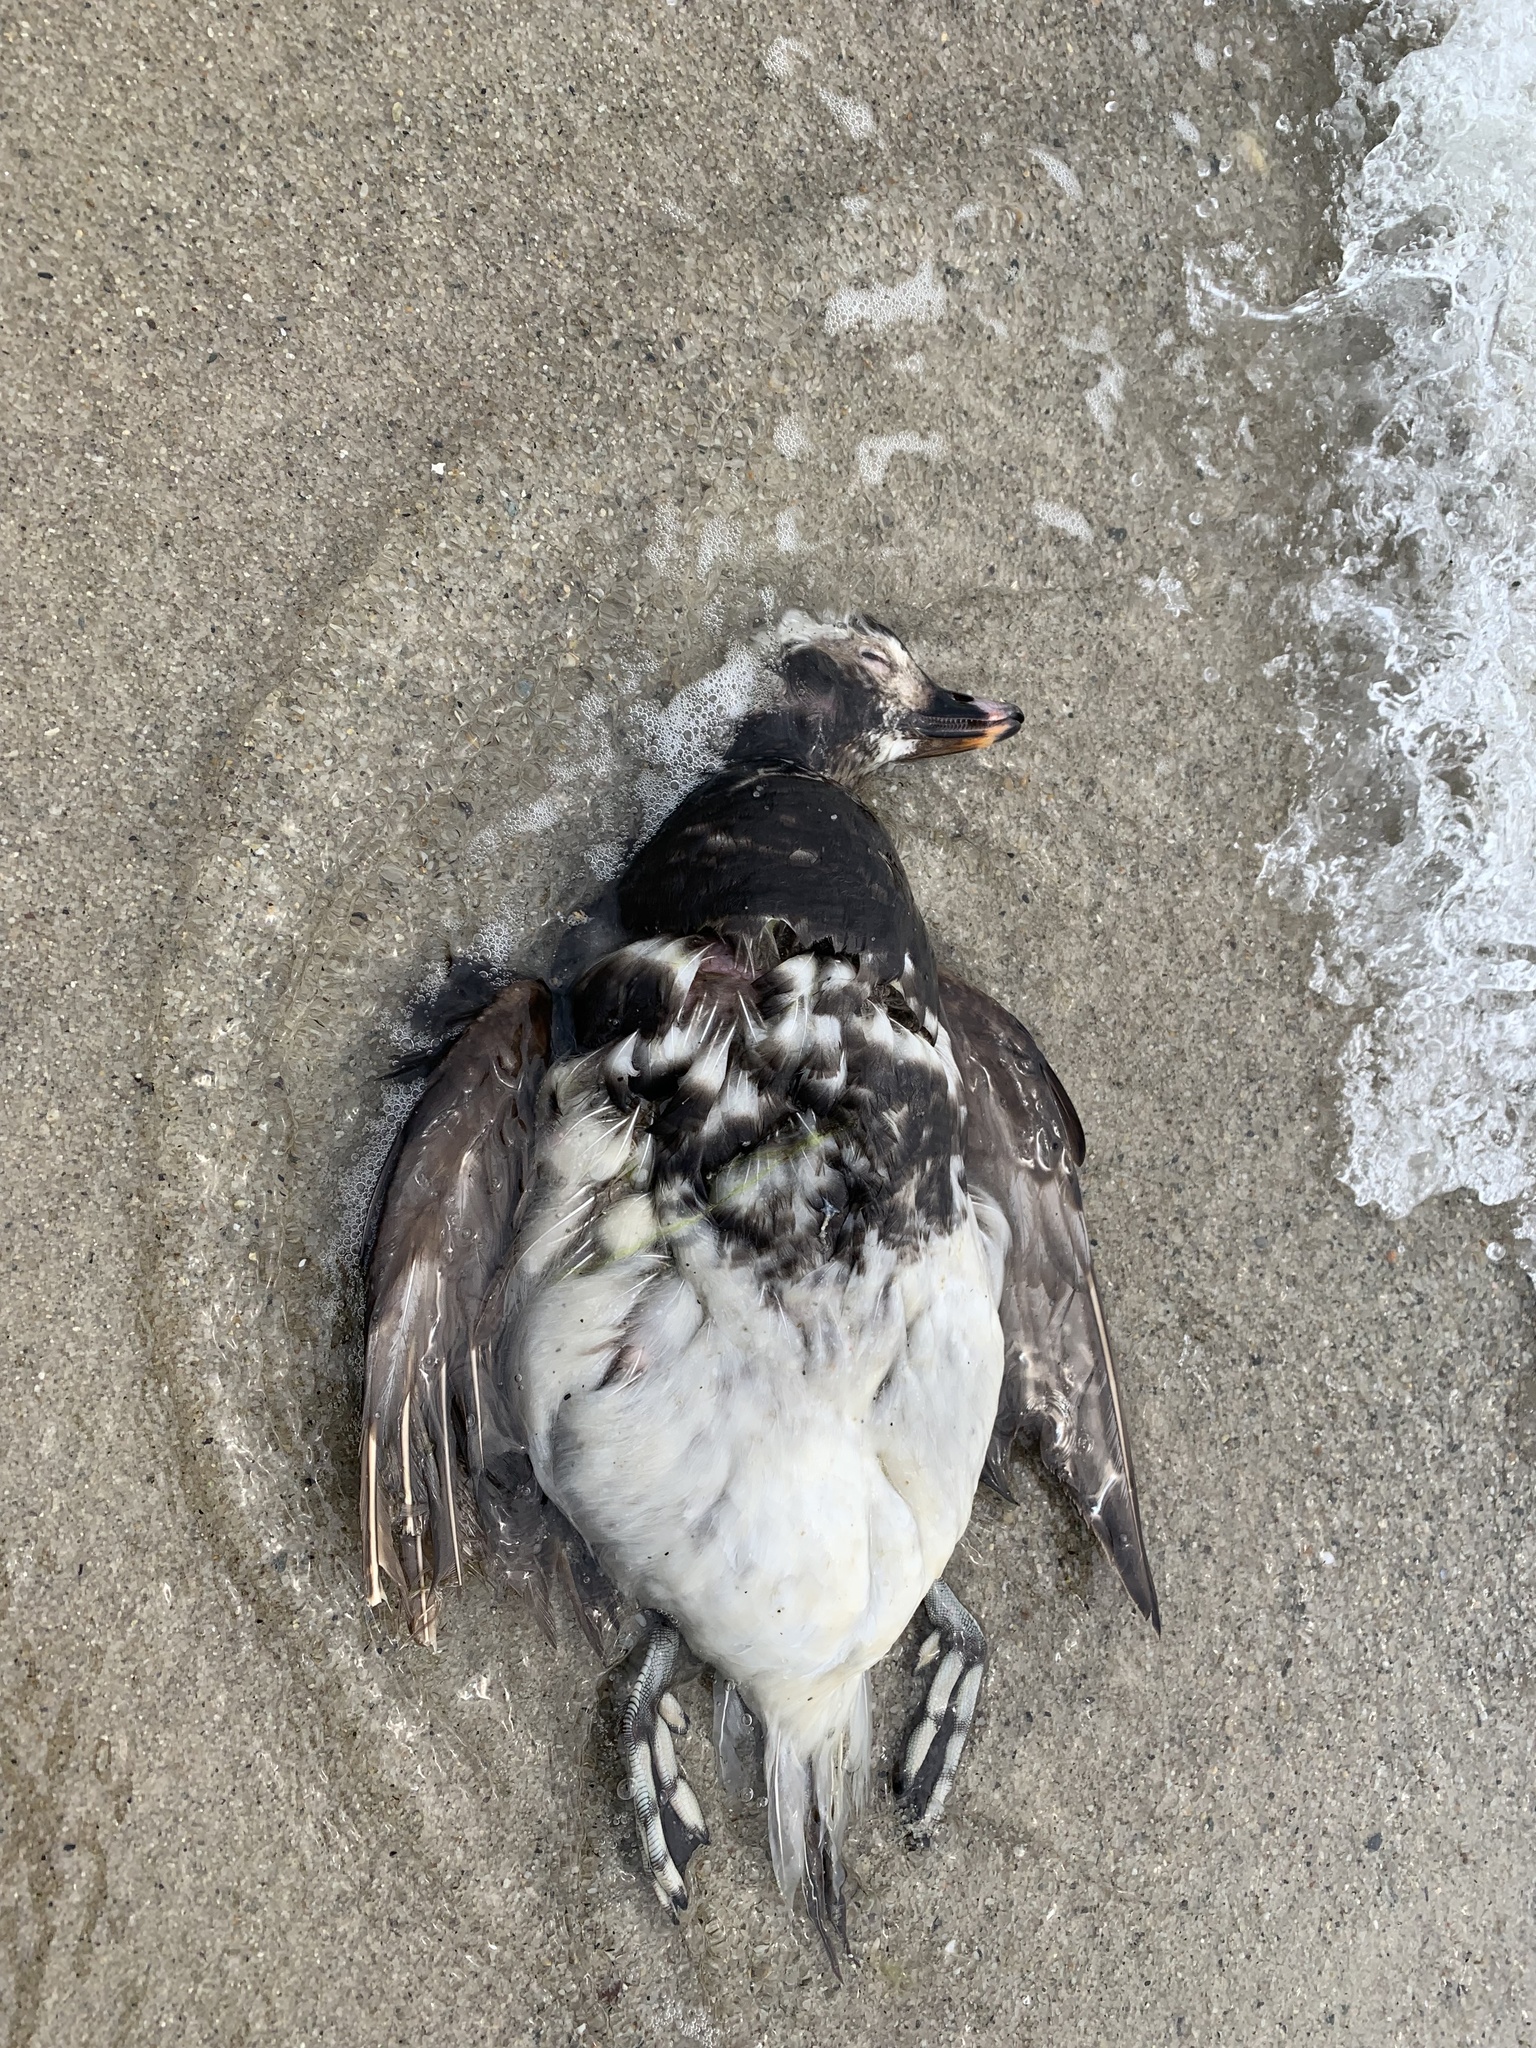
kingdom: Animalia
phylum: Chordata
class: Aves
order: Anseriformes
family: Anatidae
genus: Clangula
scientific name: Clangula hyemalis
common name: Long-tailed duck
